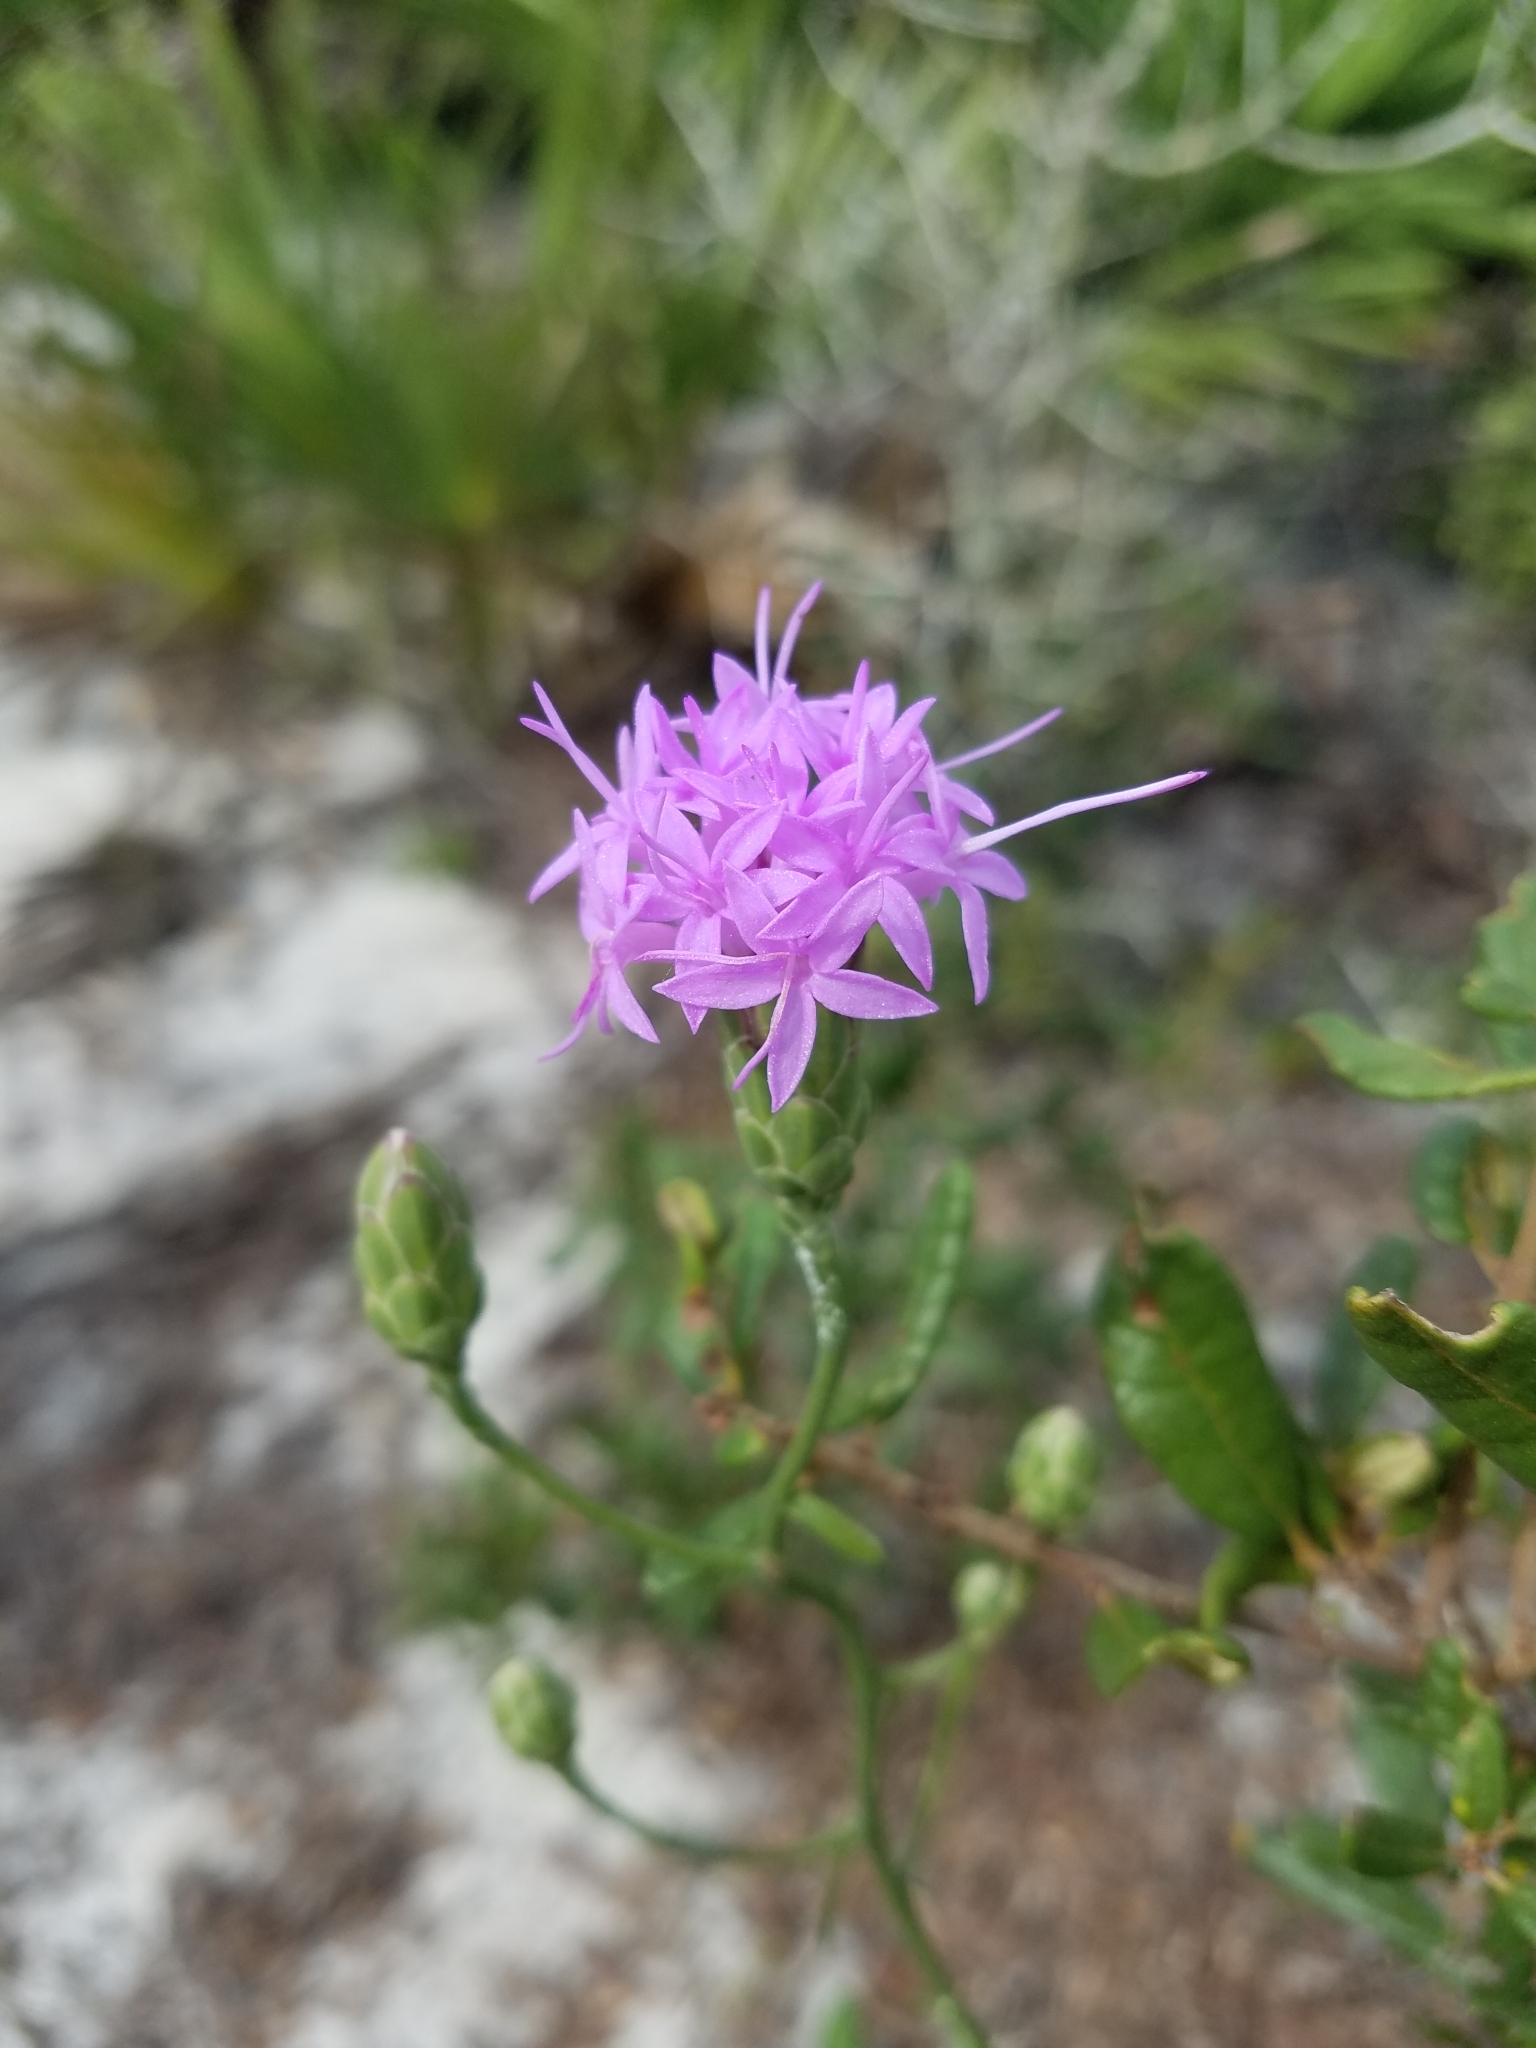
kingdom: Plantae
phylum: Tracheophyta
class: Magnoliopsida
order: Asterales
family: Asteraceae
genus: Liatris
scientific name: Liatris ohlingerae
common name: Scrub blazingstar
